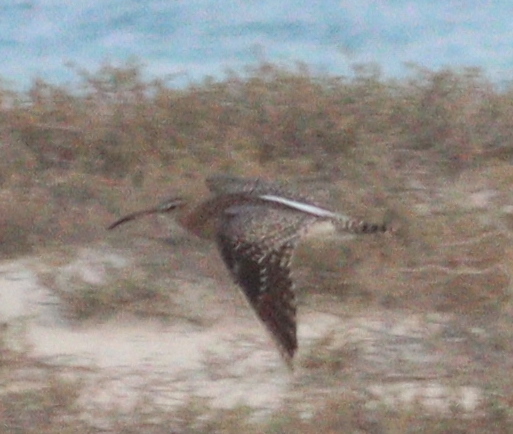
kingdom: Animalia
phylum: Chordata
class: Aves
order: Charadriiformes
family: Scolopacidae
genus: Numenius
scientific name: Numenius phaeopus
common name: Whimbrel
